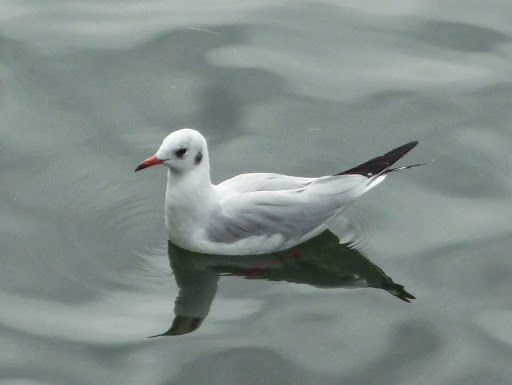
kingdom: Animalia
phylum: Chordata
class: Aves
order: Charadriiformes
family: Laridae
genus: Chroicocephalus
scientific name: Chroicocephalus ridibundus
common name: Black-headed gull
